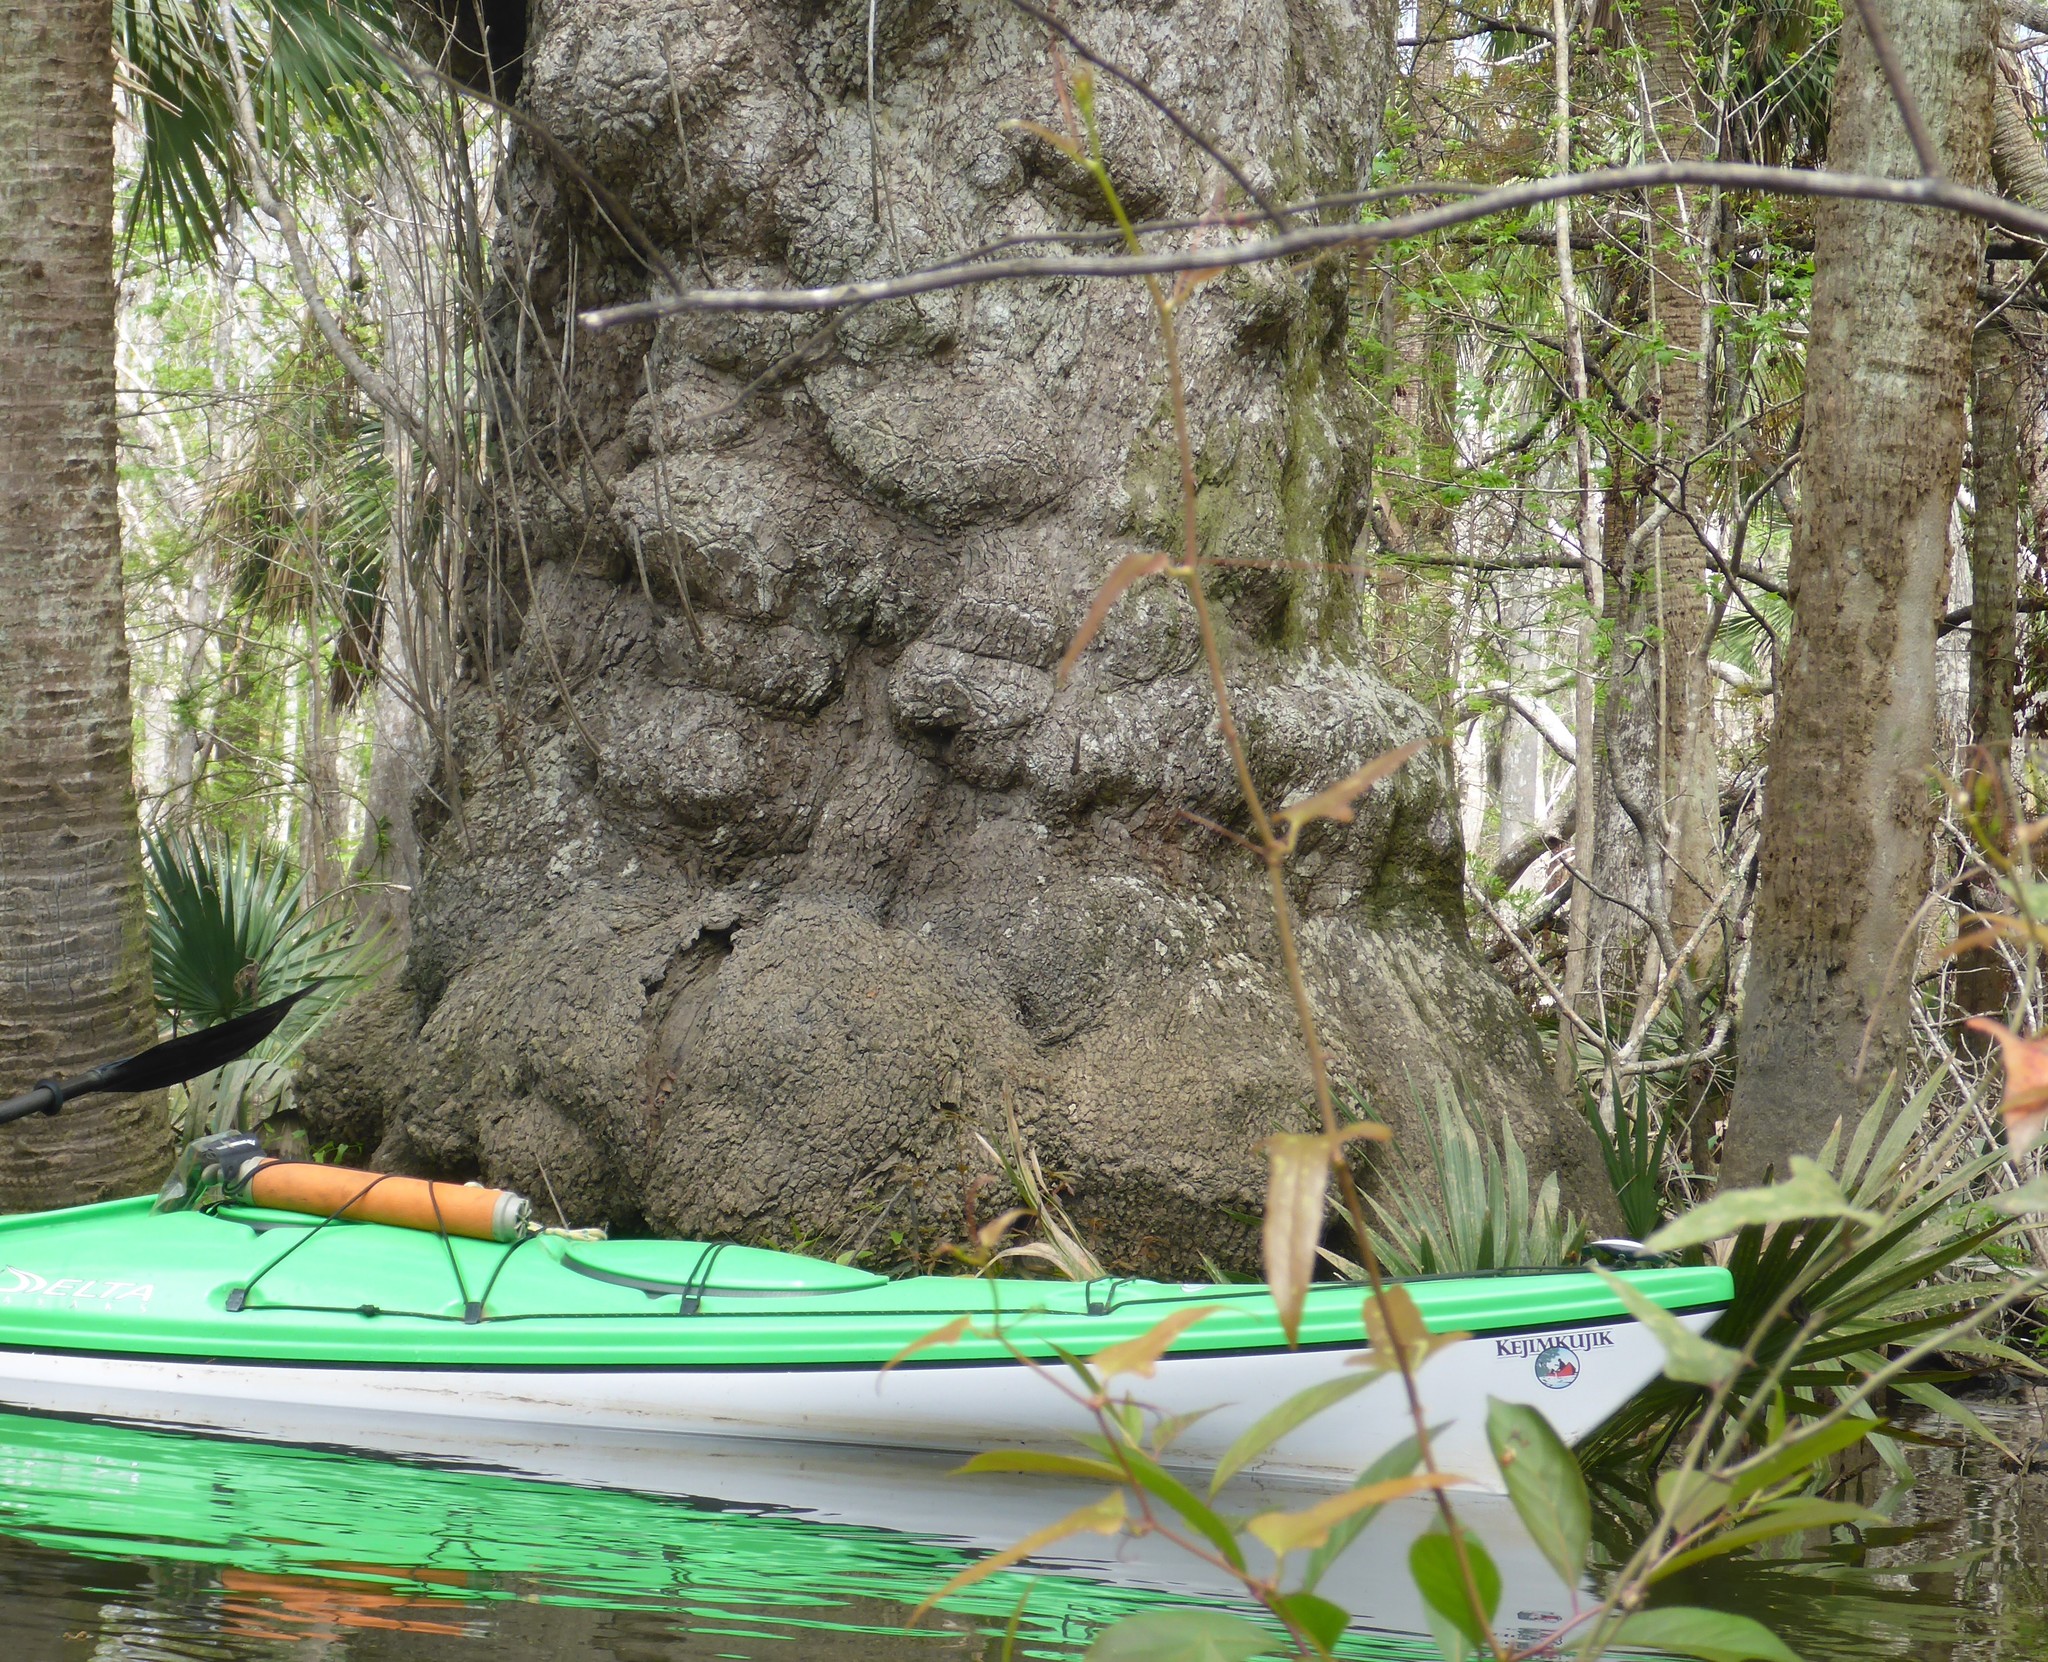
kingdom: Plantae
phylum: Tracheophyta
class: Magnoliopsida
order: Cornales
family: Nyssaceae
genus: Nyssa
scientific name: Nyssa ogeche
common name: Ogeechee tupelo
